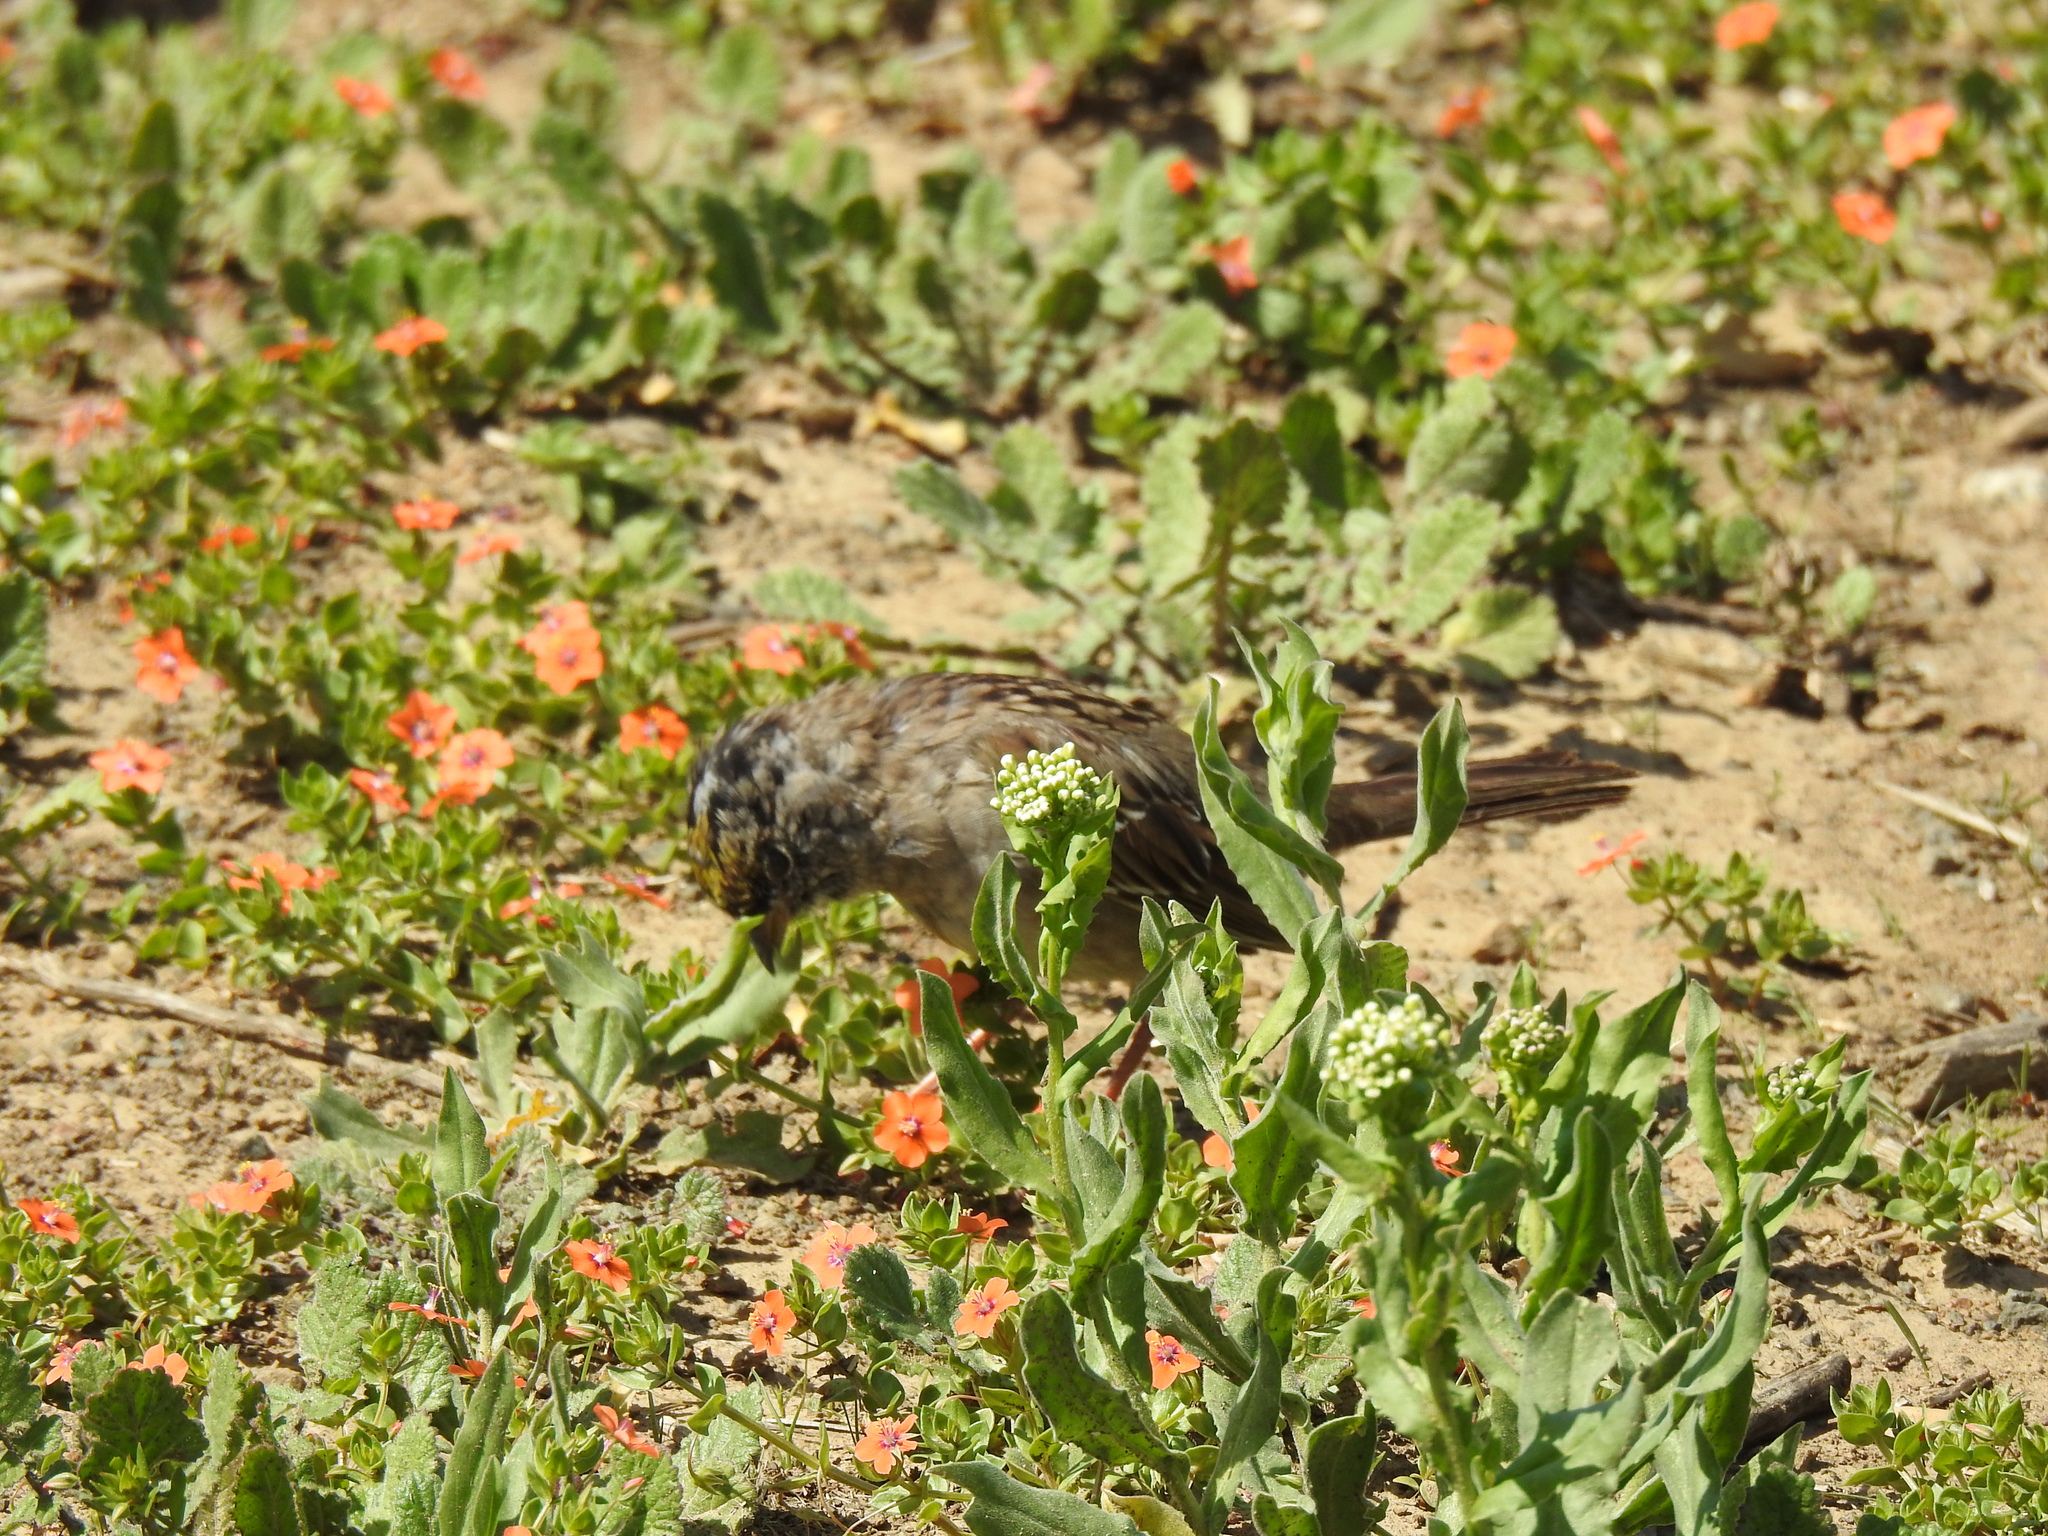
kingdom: Animalia
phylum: Chordata
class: Aves
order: Passeriformes
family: Passerellidae
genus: Zonotrichia
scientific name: Zonotrichia atricapilla
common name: Golden-crowned sparrow
